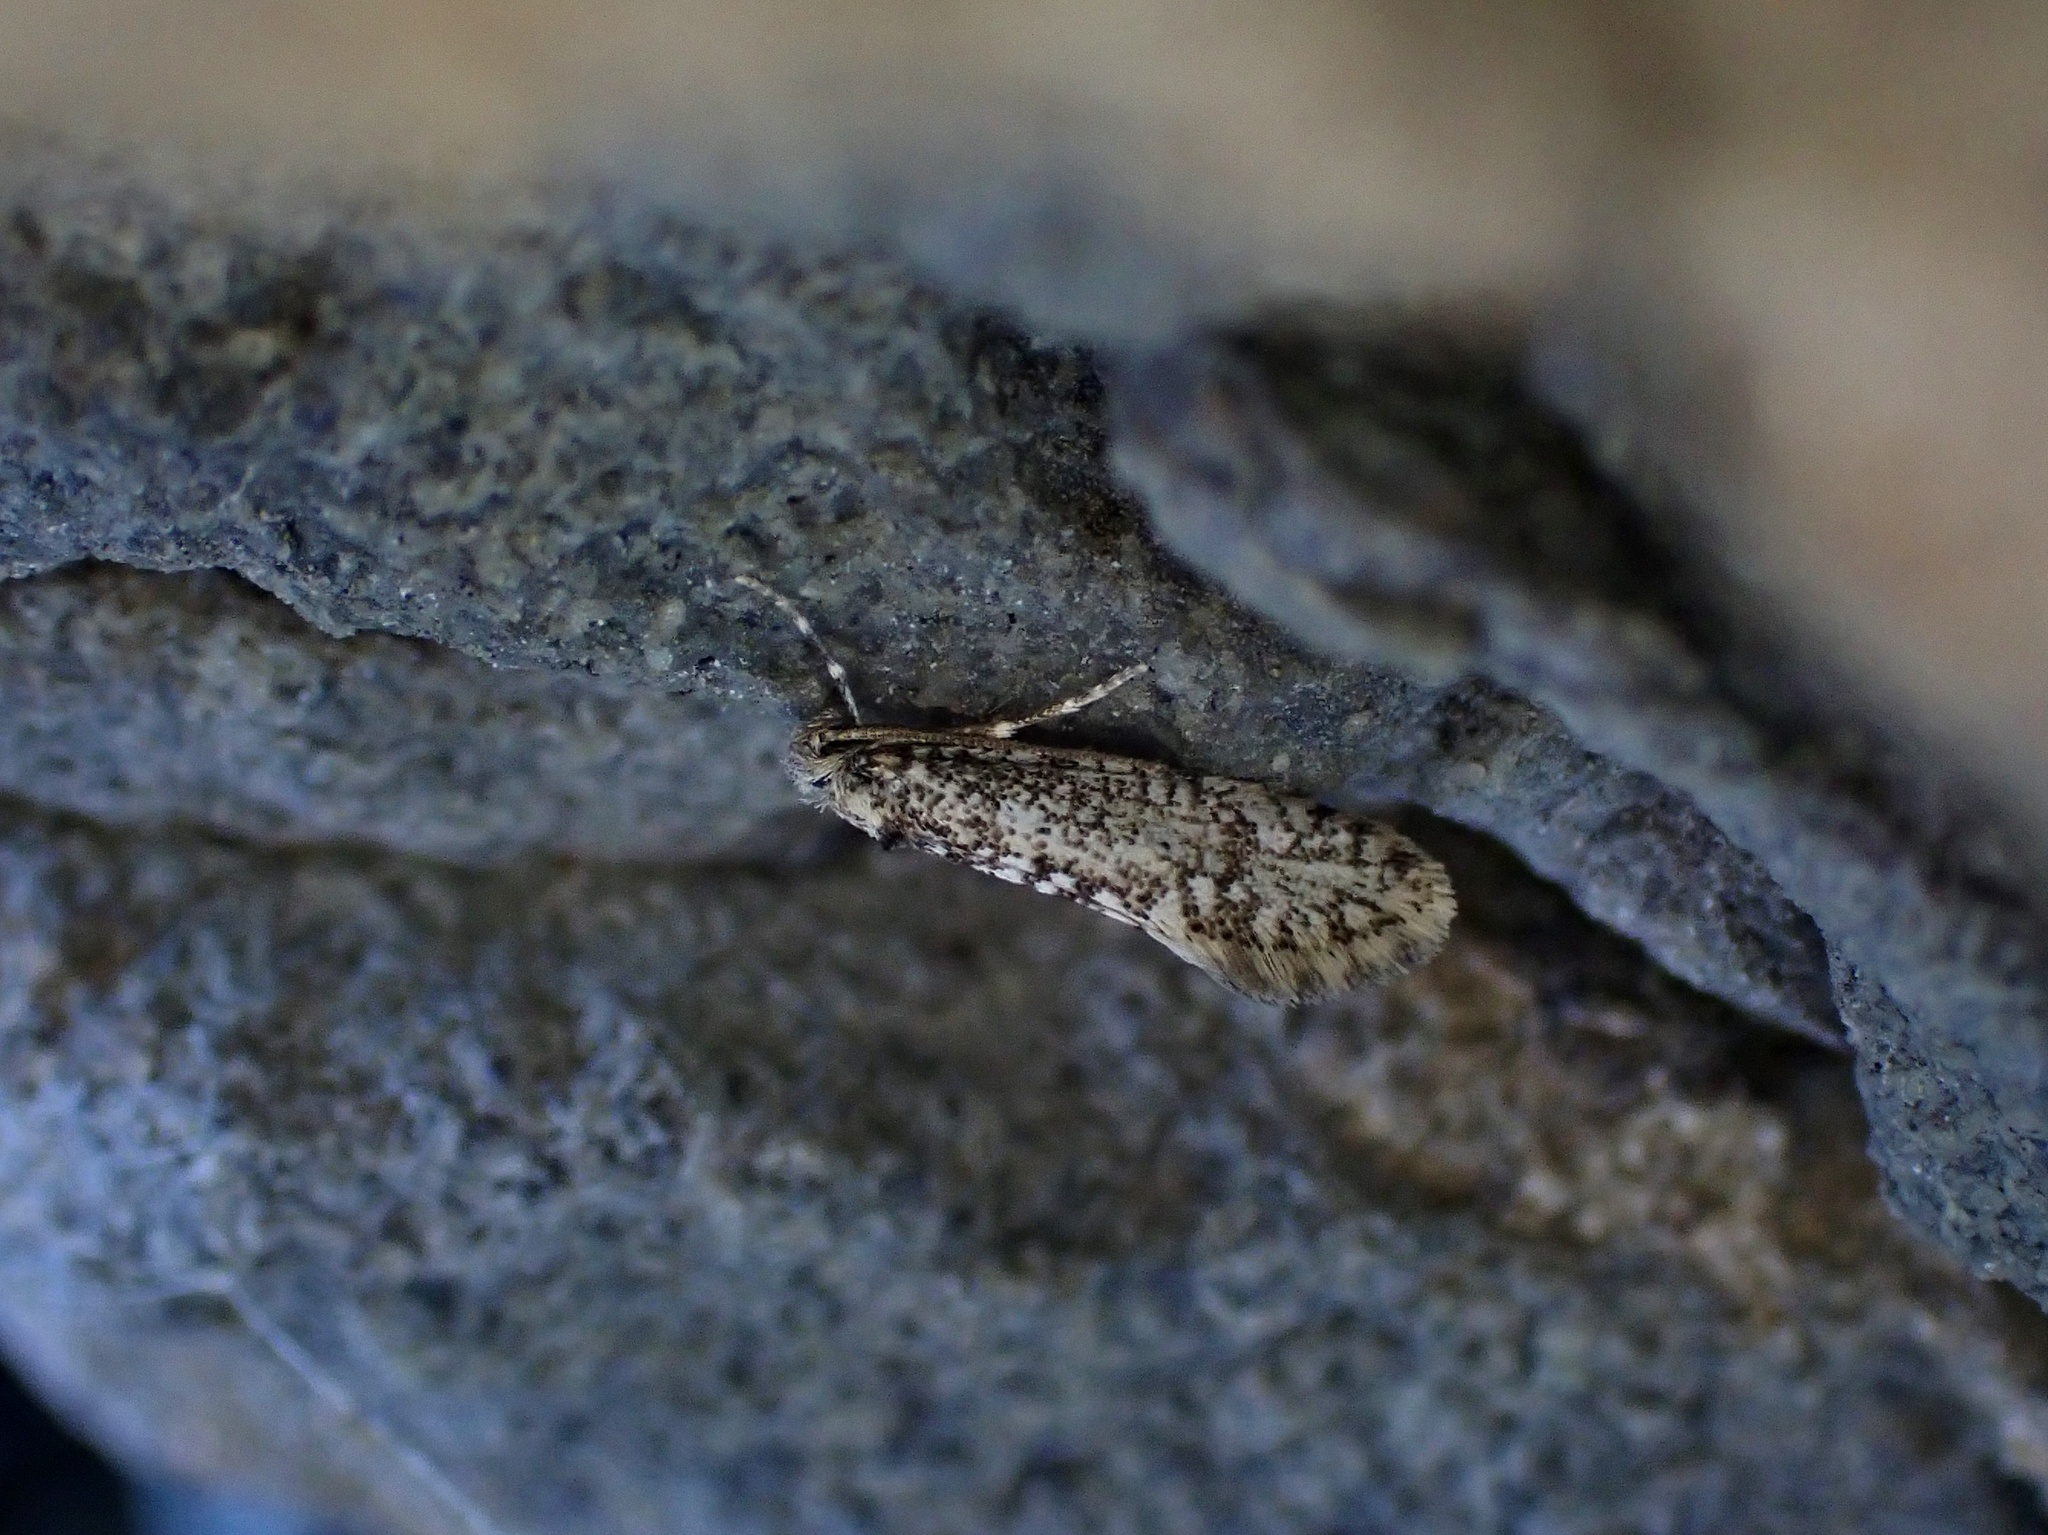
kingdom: Animalia
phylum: Arthropoda
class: Insecta
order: Lepidoptera
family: Psychidae
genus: Scoriodyta
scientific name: Scoriodyta rakautarensis
